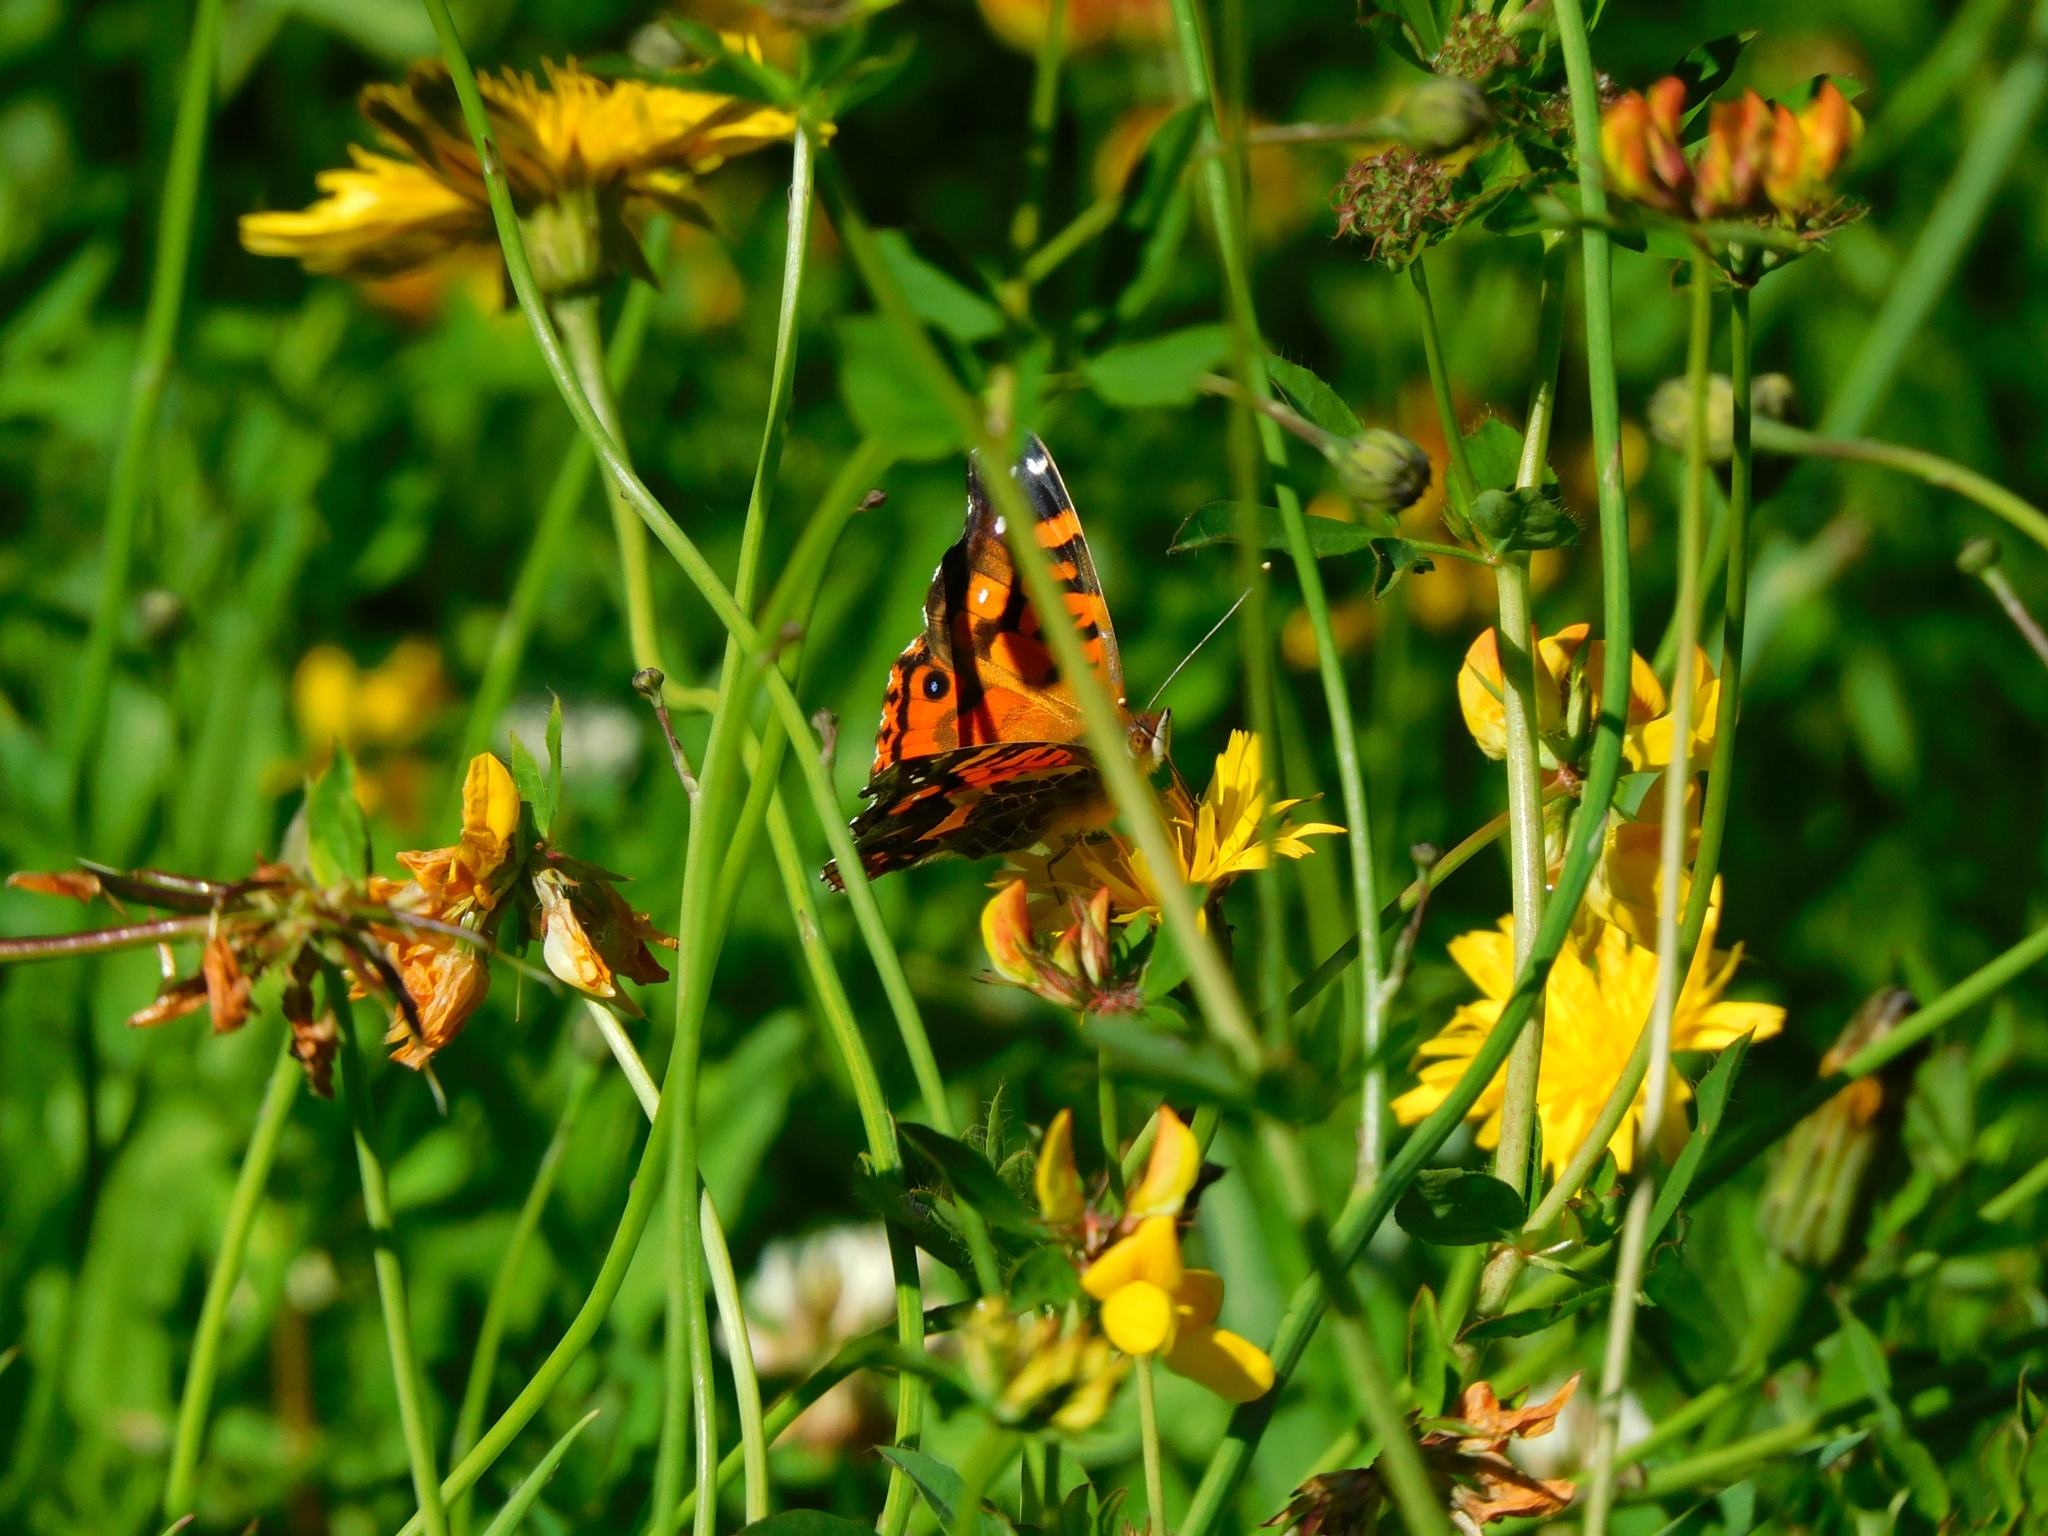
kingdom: Animalia
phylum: Arthropoda
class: Insecta
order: Lepidoptera
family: Nymphalidae
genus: Vanessa
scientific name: Vanessa terpsichore
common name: Chilean lady
